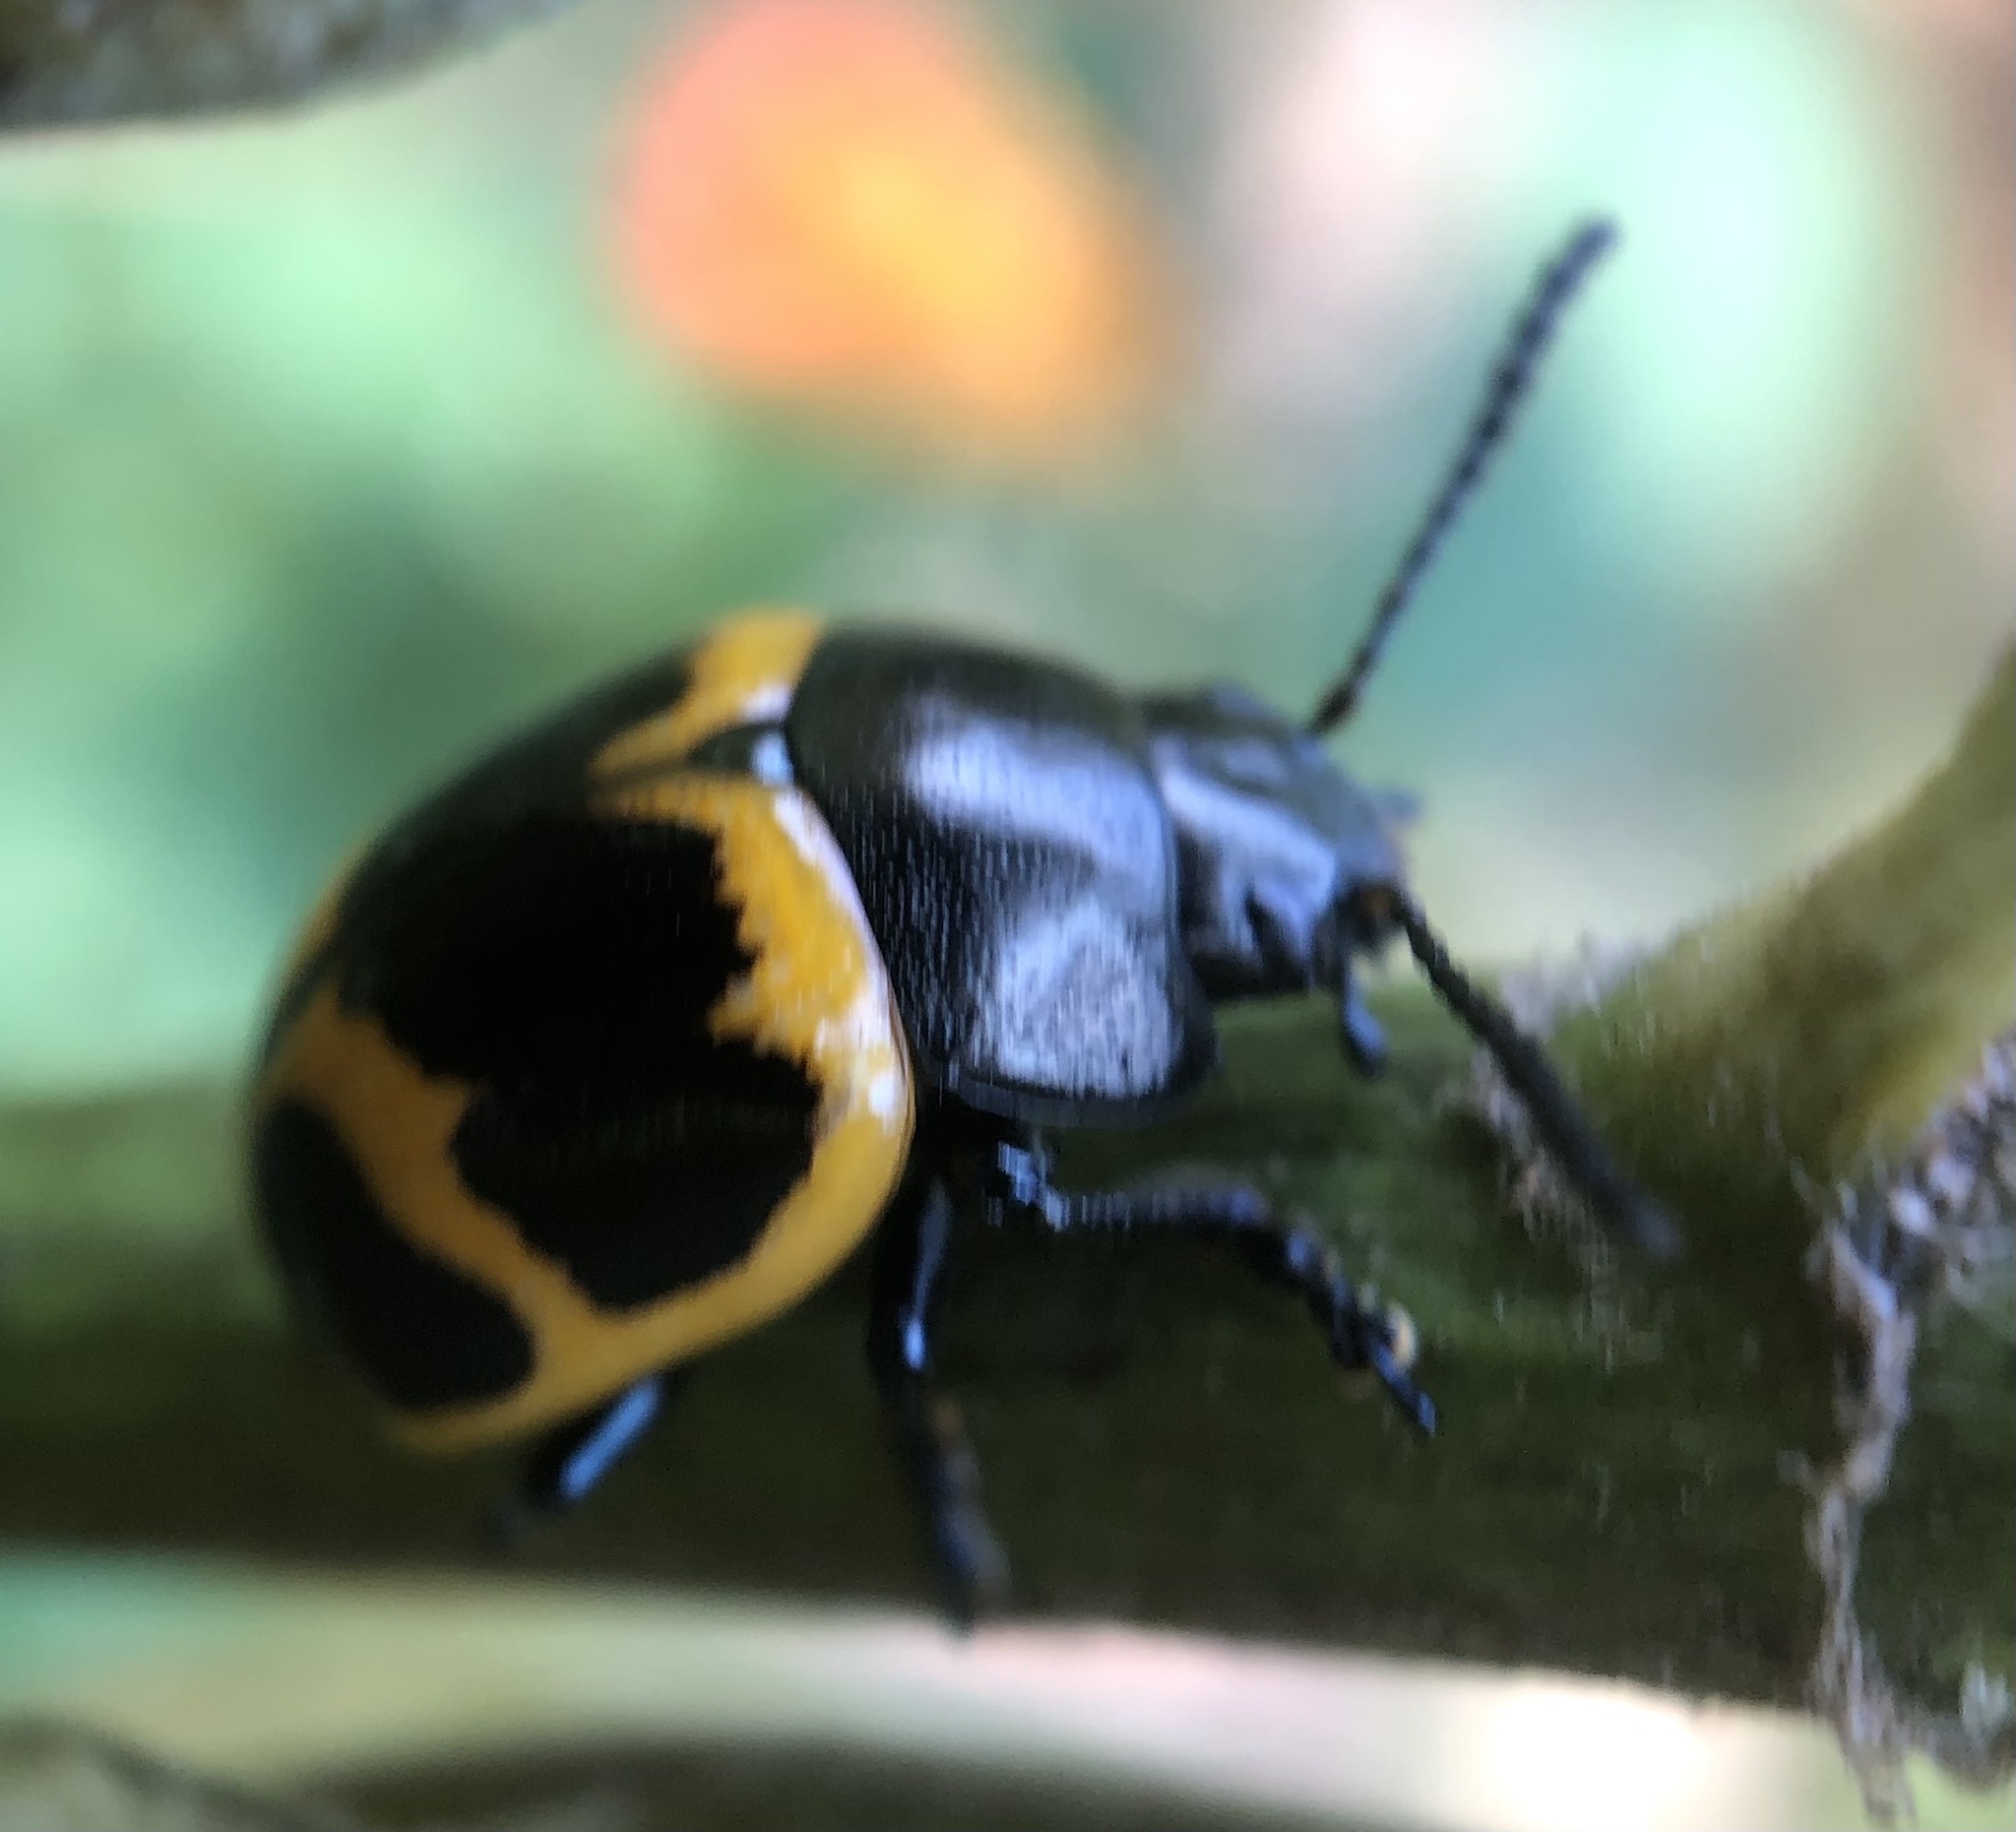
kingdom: Animalia
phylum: Arthropoda
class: Insecta
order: Coleoptera
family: Chrysomelidae
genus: Labidomera
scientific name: Labidomera clivicollis
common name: Swamp milkweed leaf beetle
